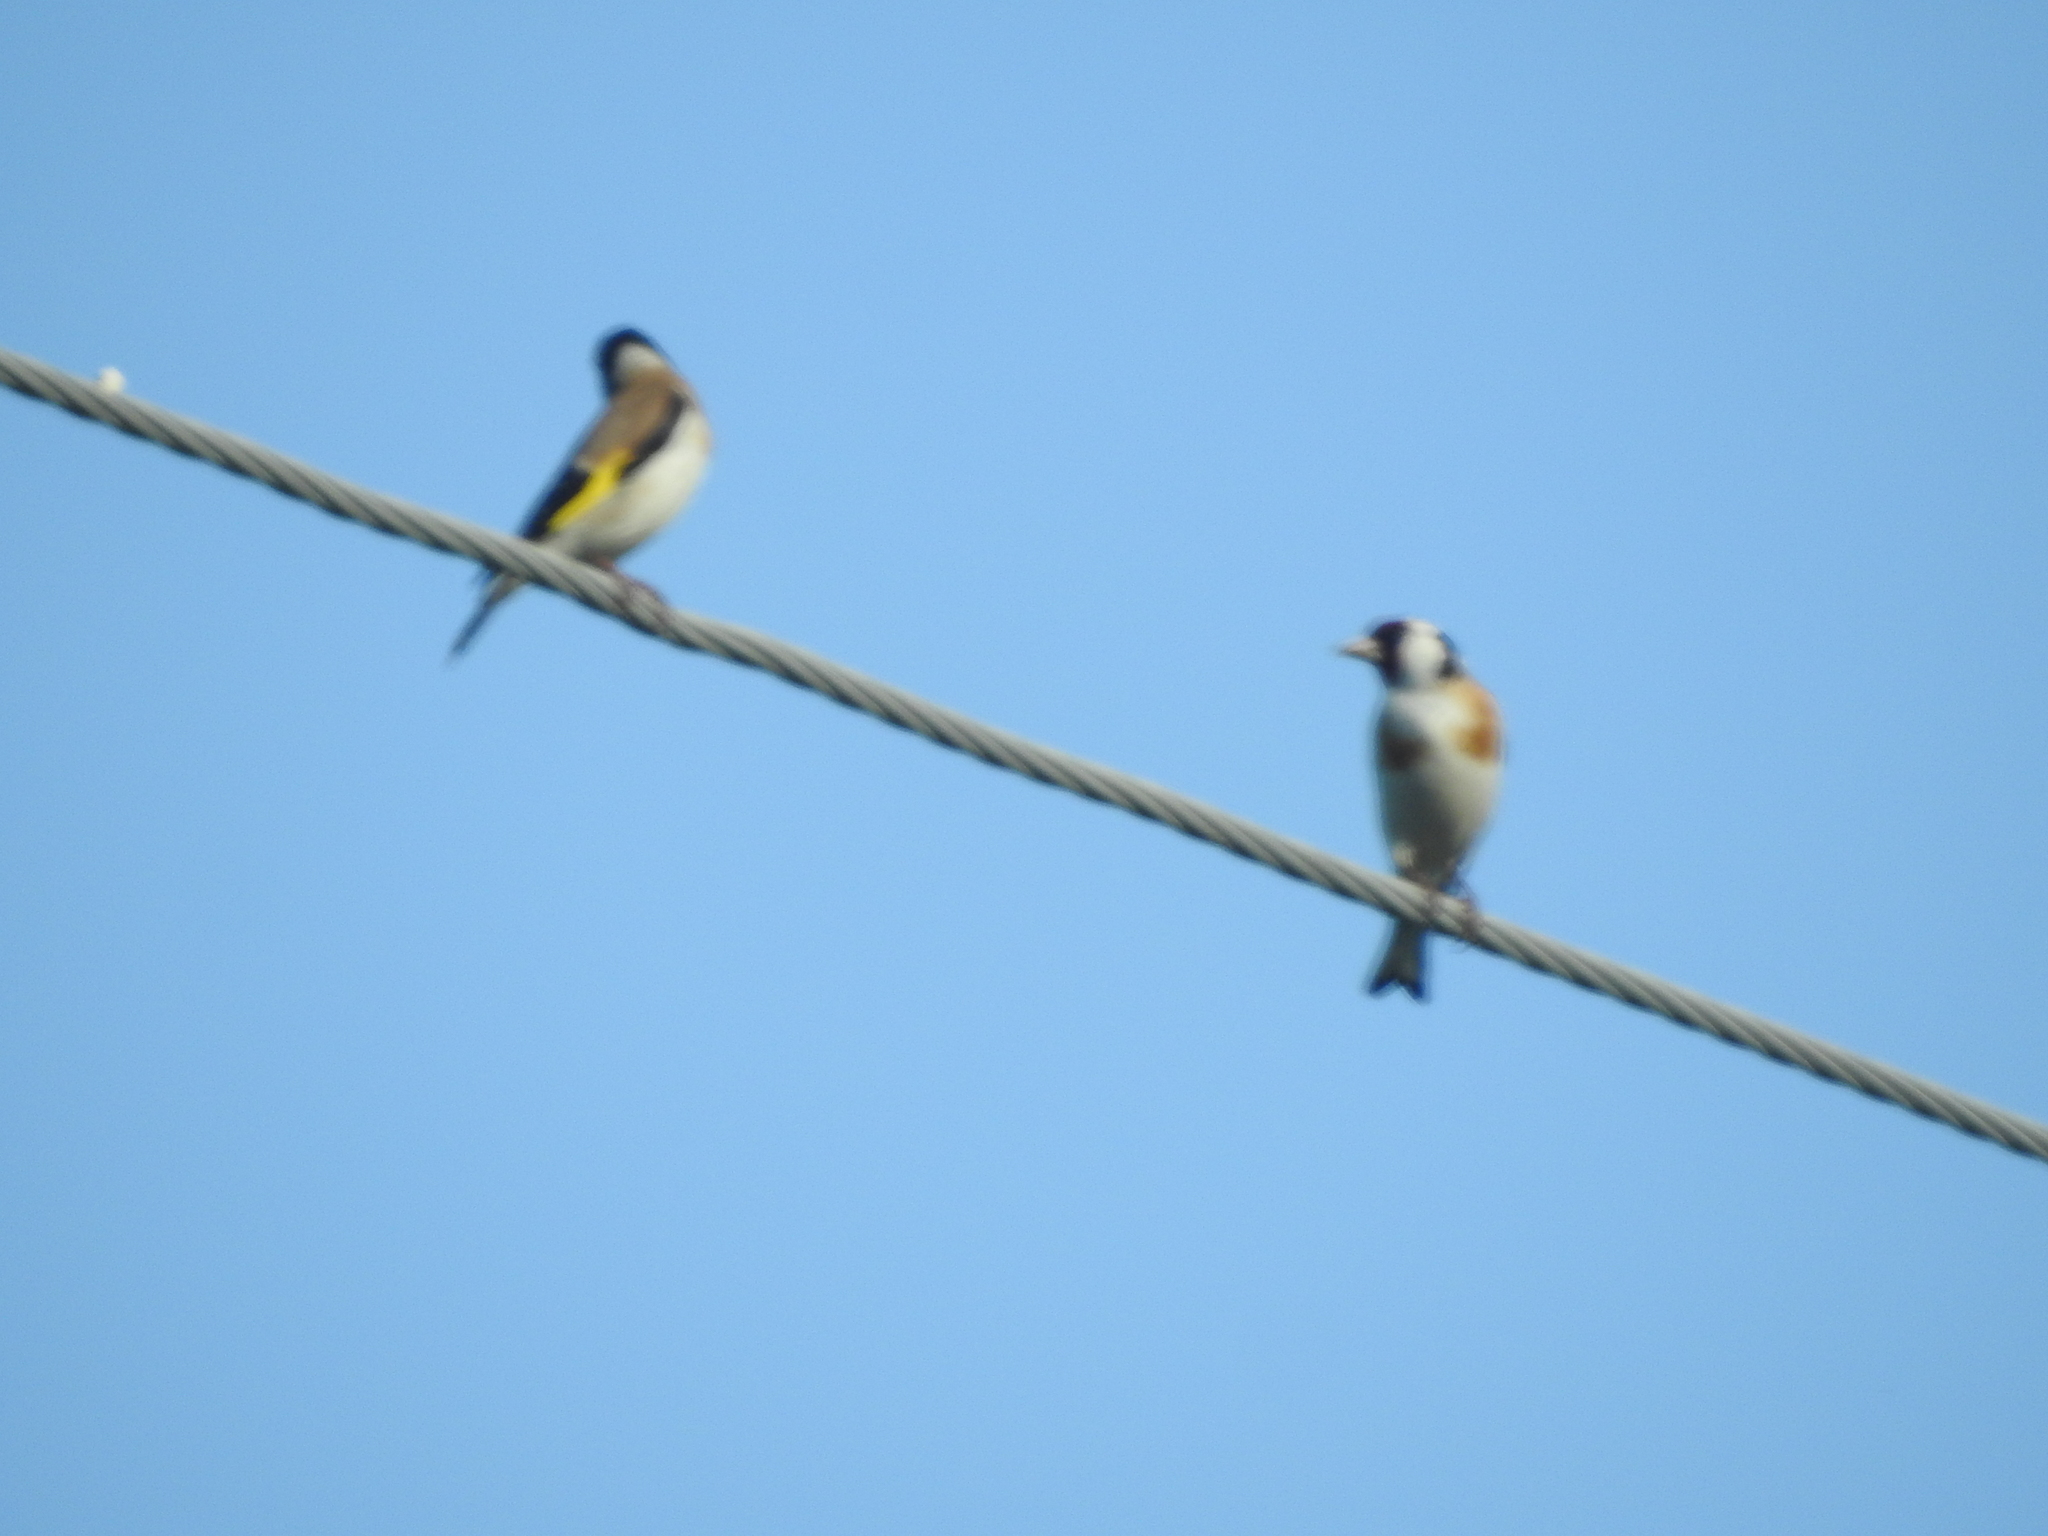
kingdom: Animalia
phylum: Chordata
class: Aves
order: Passeriformes
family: Fringillidae
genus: Carduelis
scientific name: Carduelis carduelis
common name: European goldfinch
